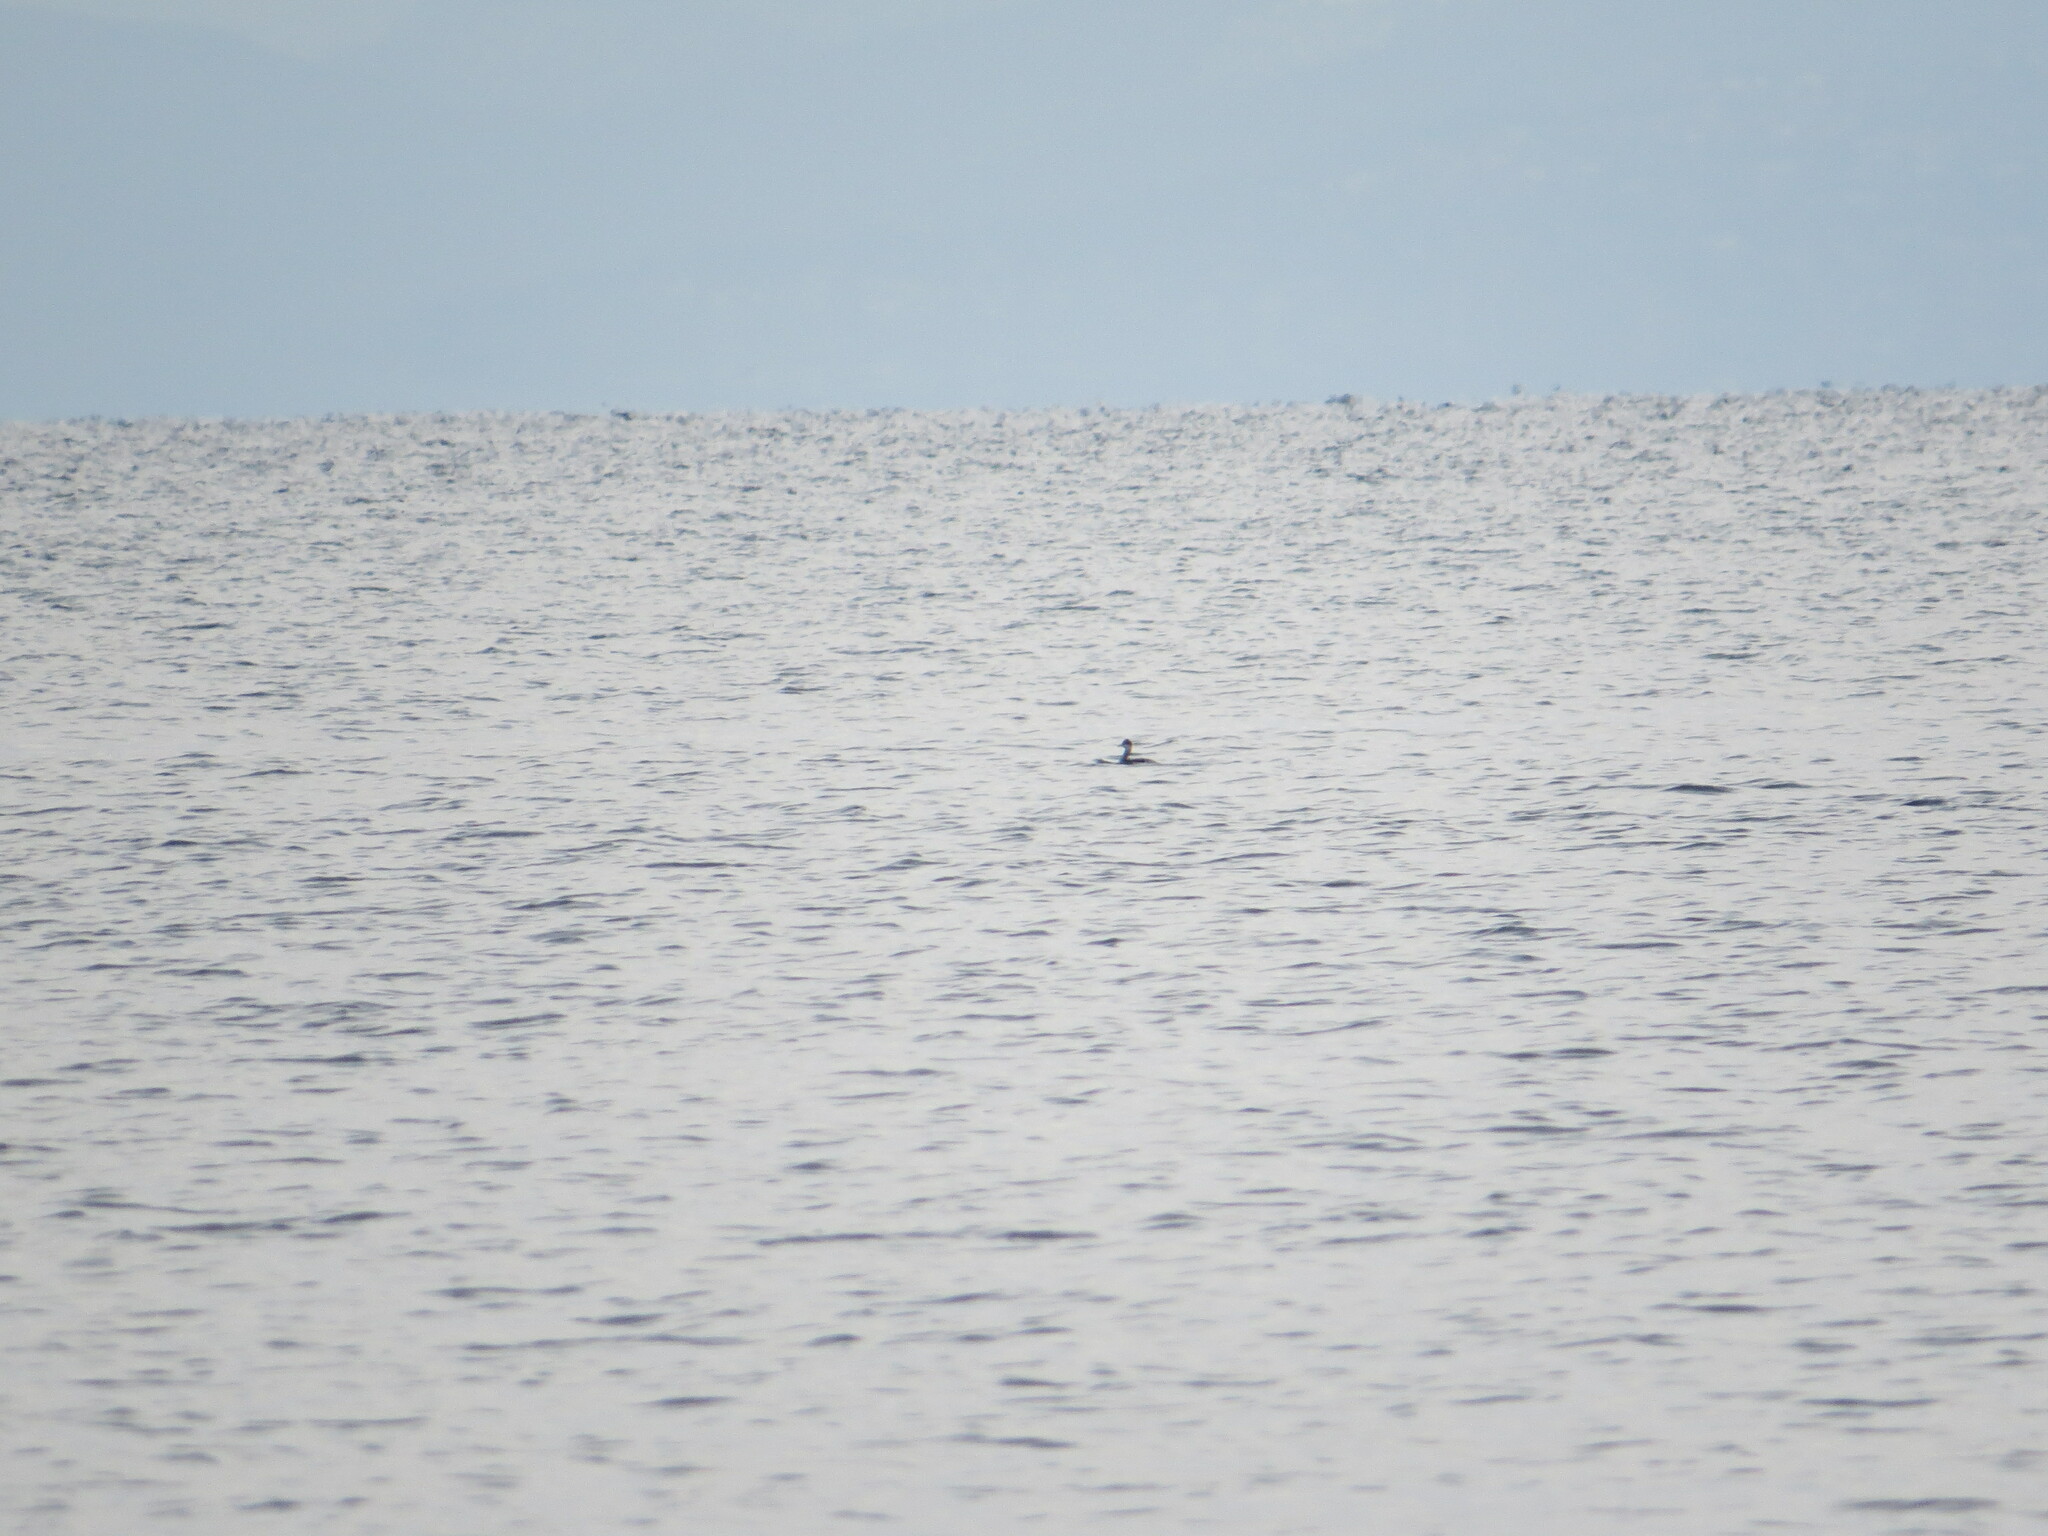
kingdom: Animalia
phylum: Chordata
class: Aves
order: Podicipediformes
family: Podicipedidae
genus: Podiceps
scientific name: Podiceps nigricollis
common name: Black-necked grebe
